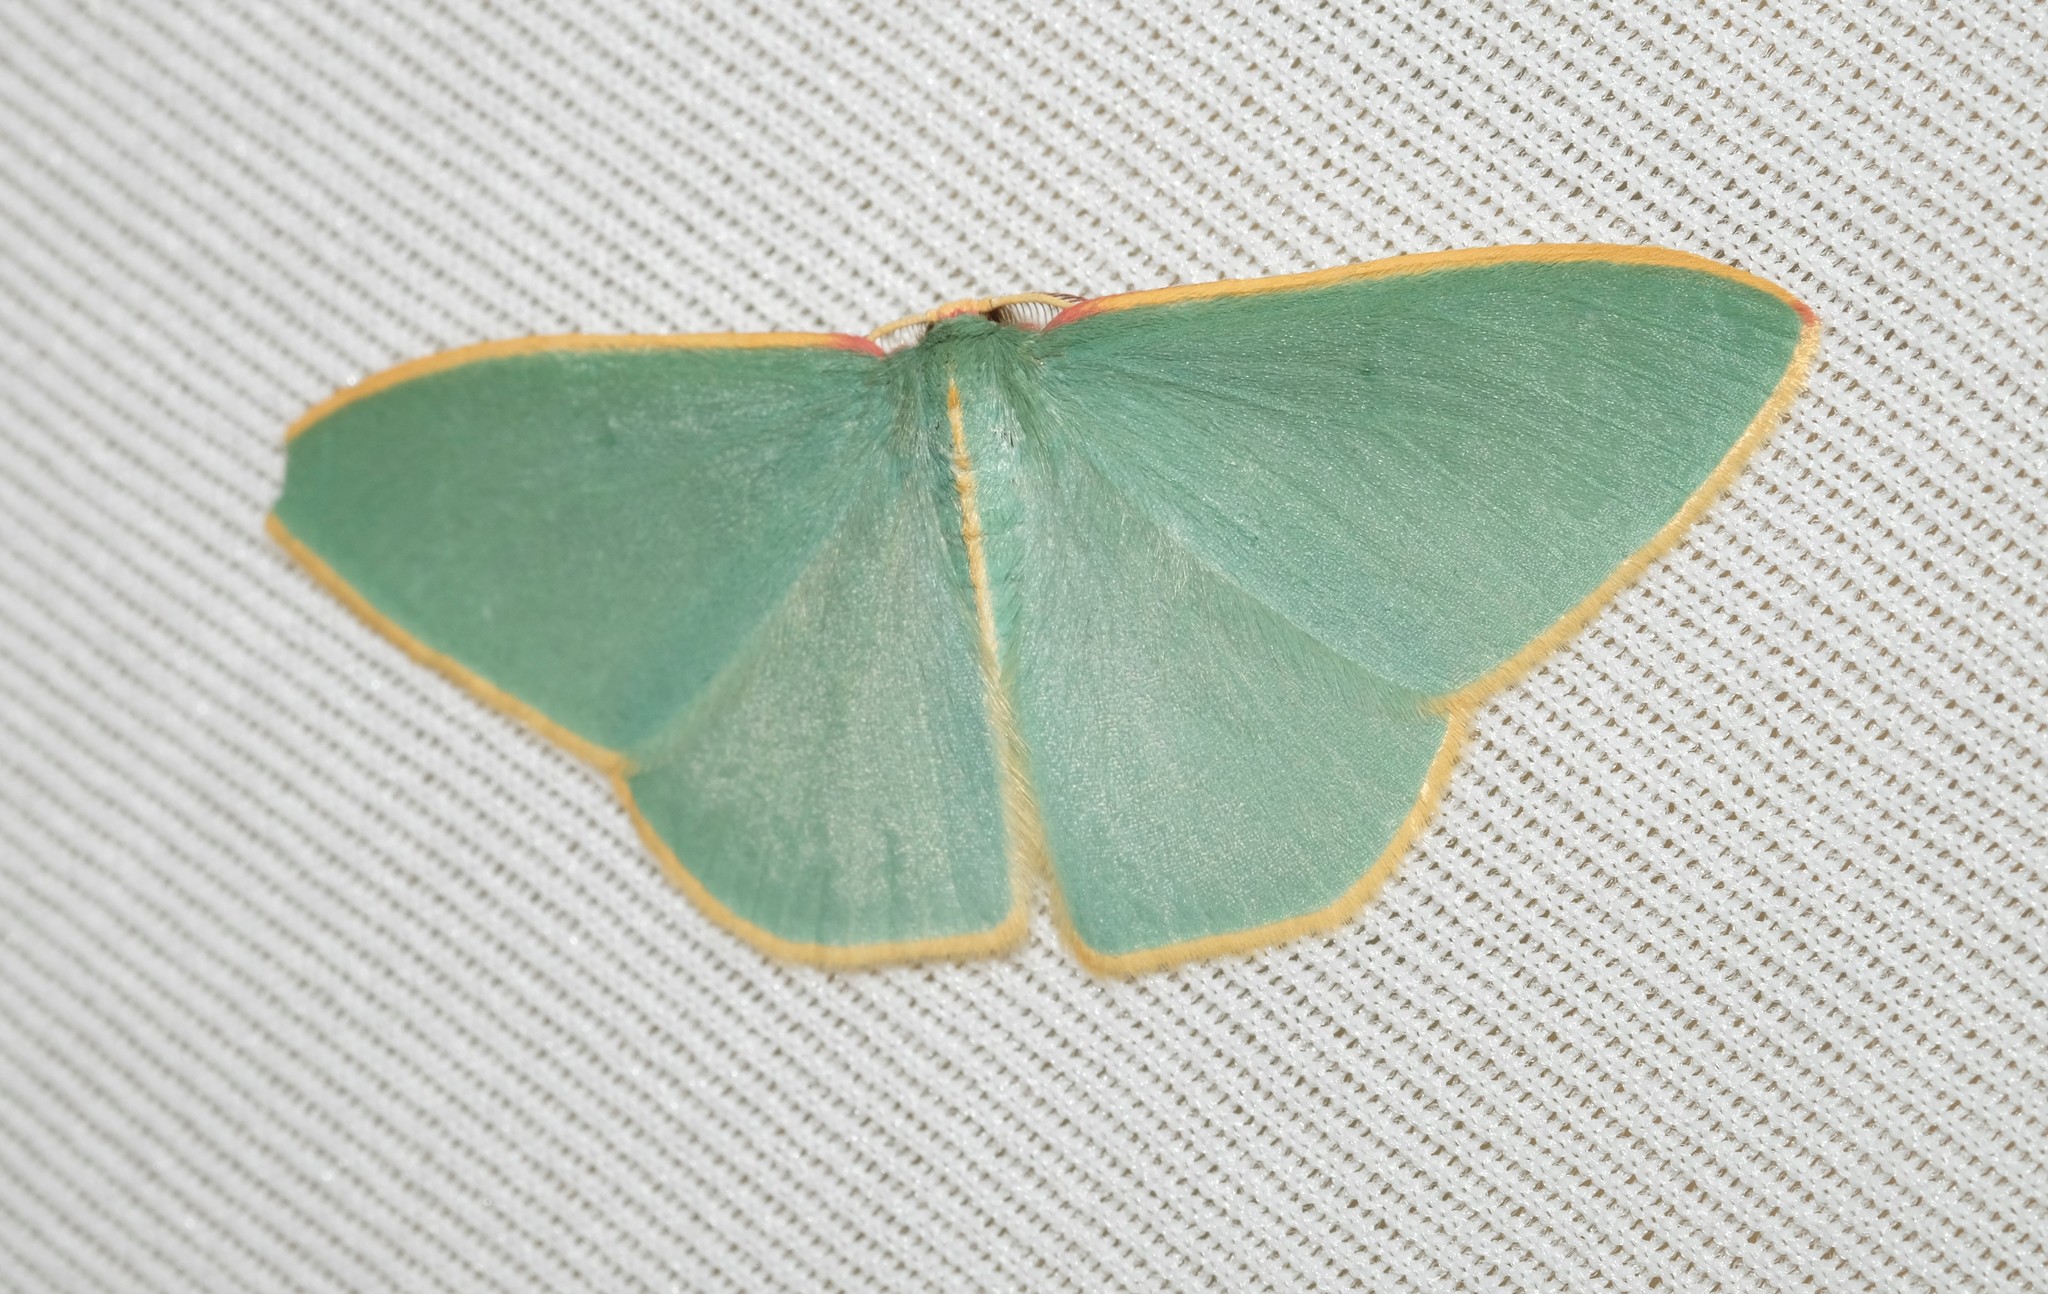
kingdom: Animalia
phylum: Arthropoda
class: Insecta
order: Lepidoptera
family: Geometridae
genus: Chlorocoma
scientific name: Chlorocoma assimilis
